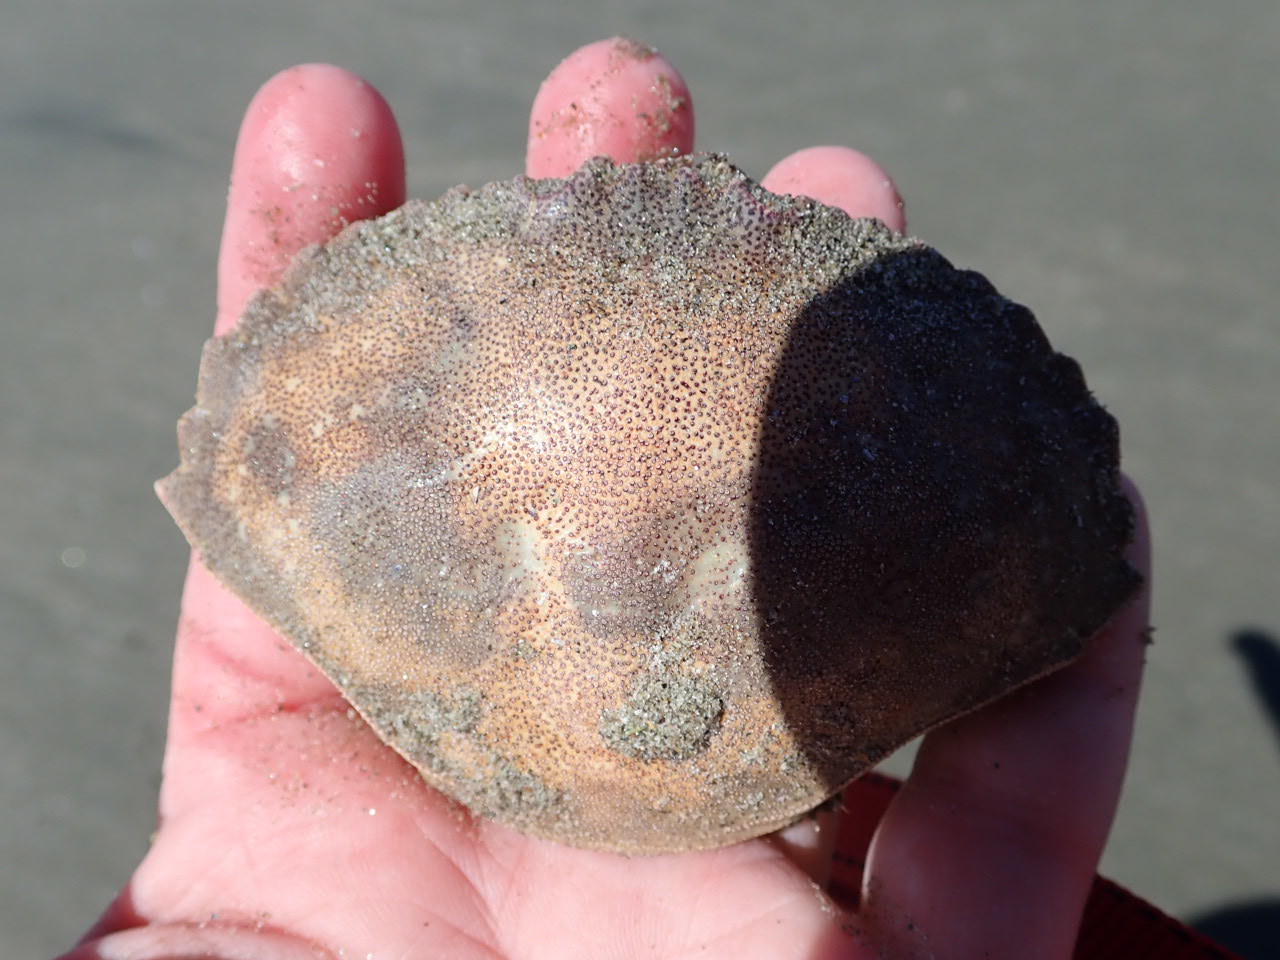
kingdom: Animalia
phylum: Arthropoda
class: Malacostraca
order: Decapoda
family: Cancridae
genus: Cancer
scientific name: Cancer irroratus
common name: Atlantic rock crab
